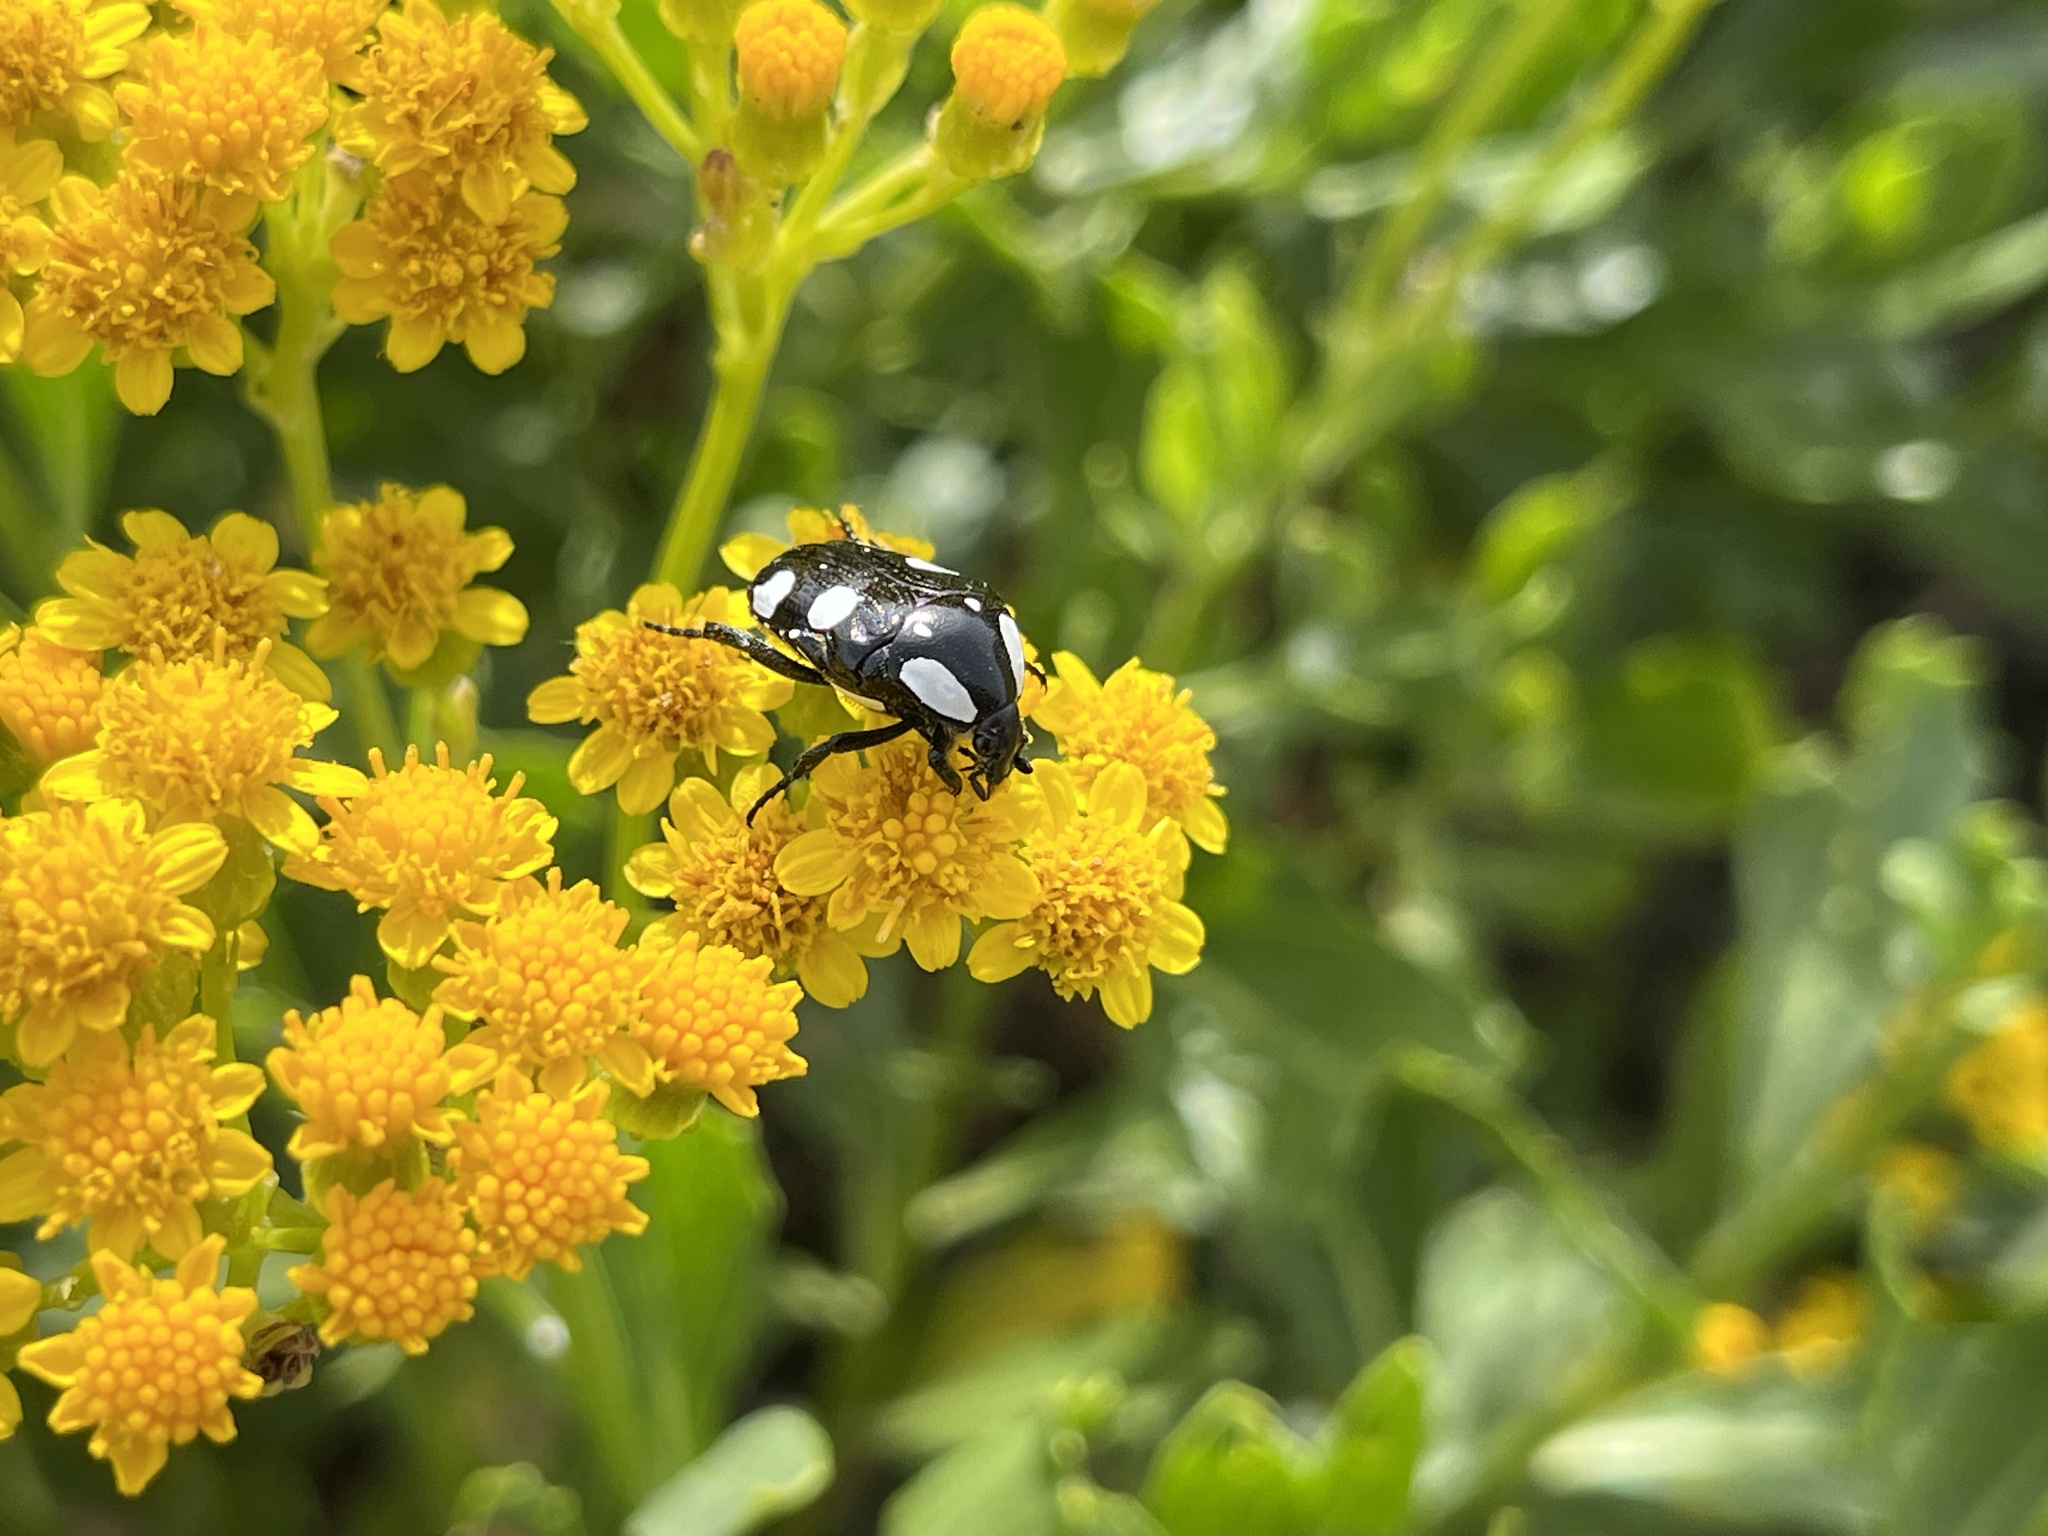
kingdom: Animalia
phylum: Arthropoda
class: Insecta
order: Coleoptera
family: Scarabaeidae
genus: Mausoleopsis
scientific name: Mausoleopsis amabilis
